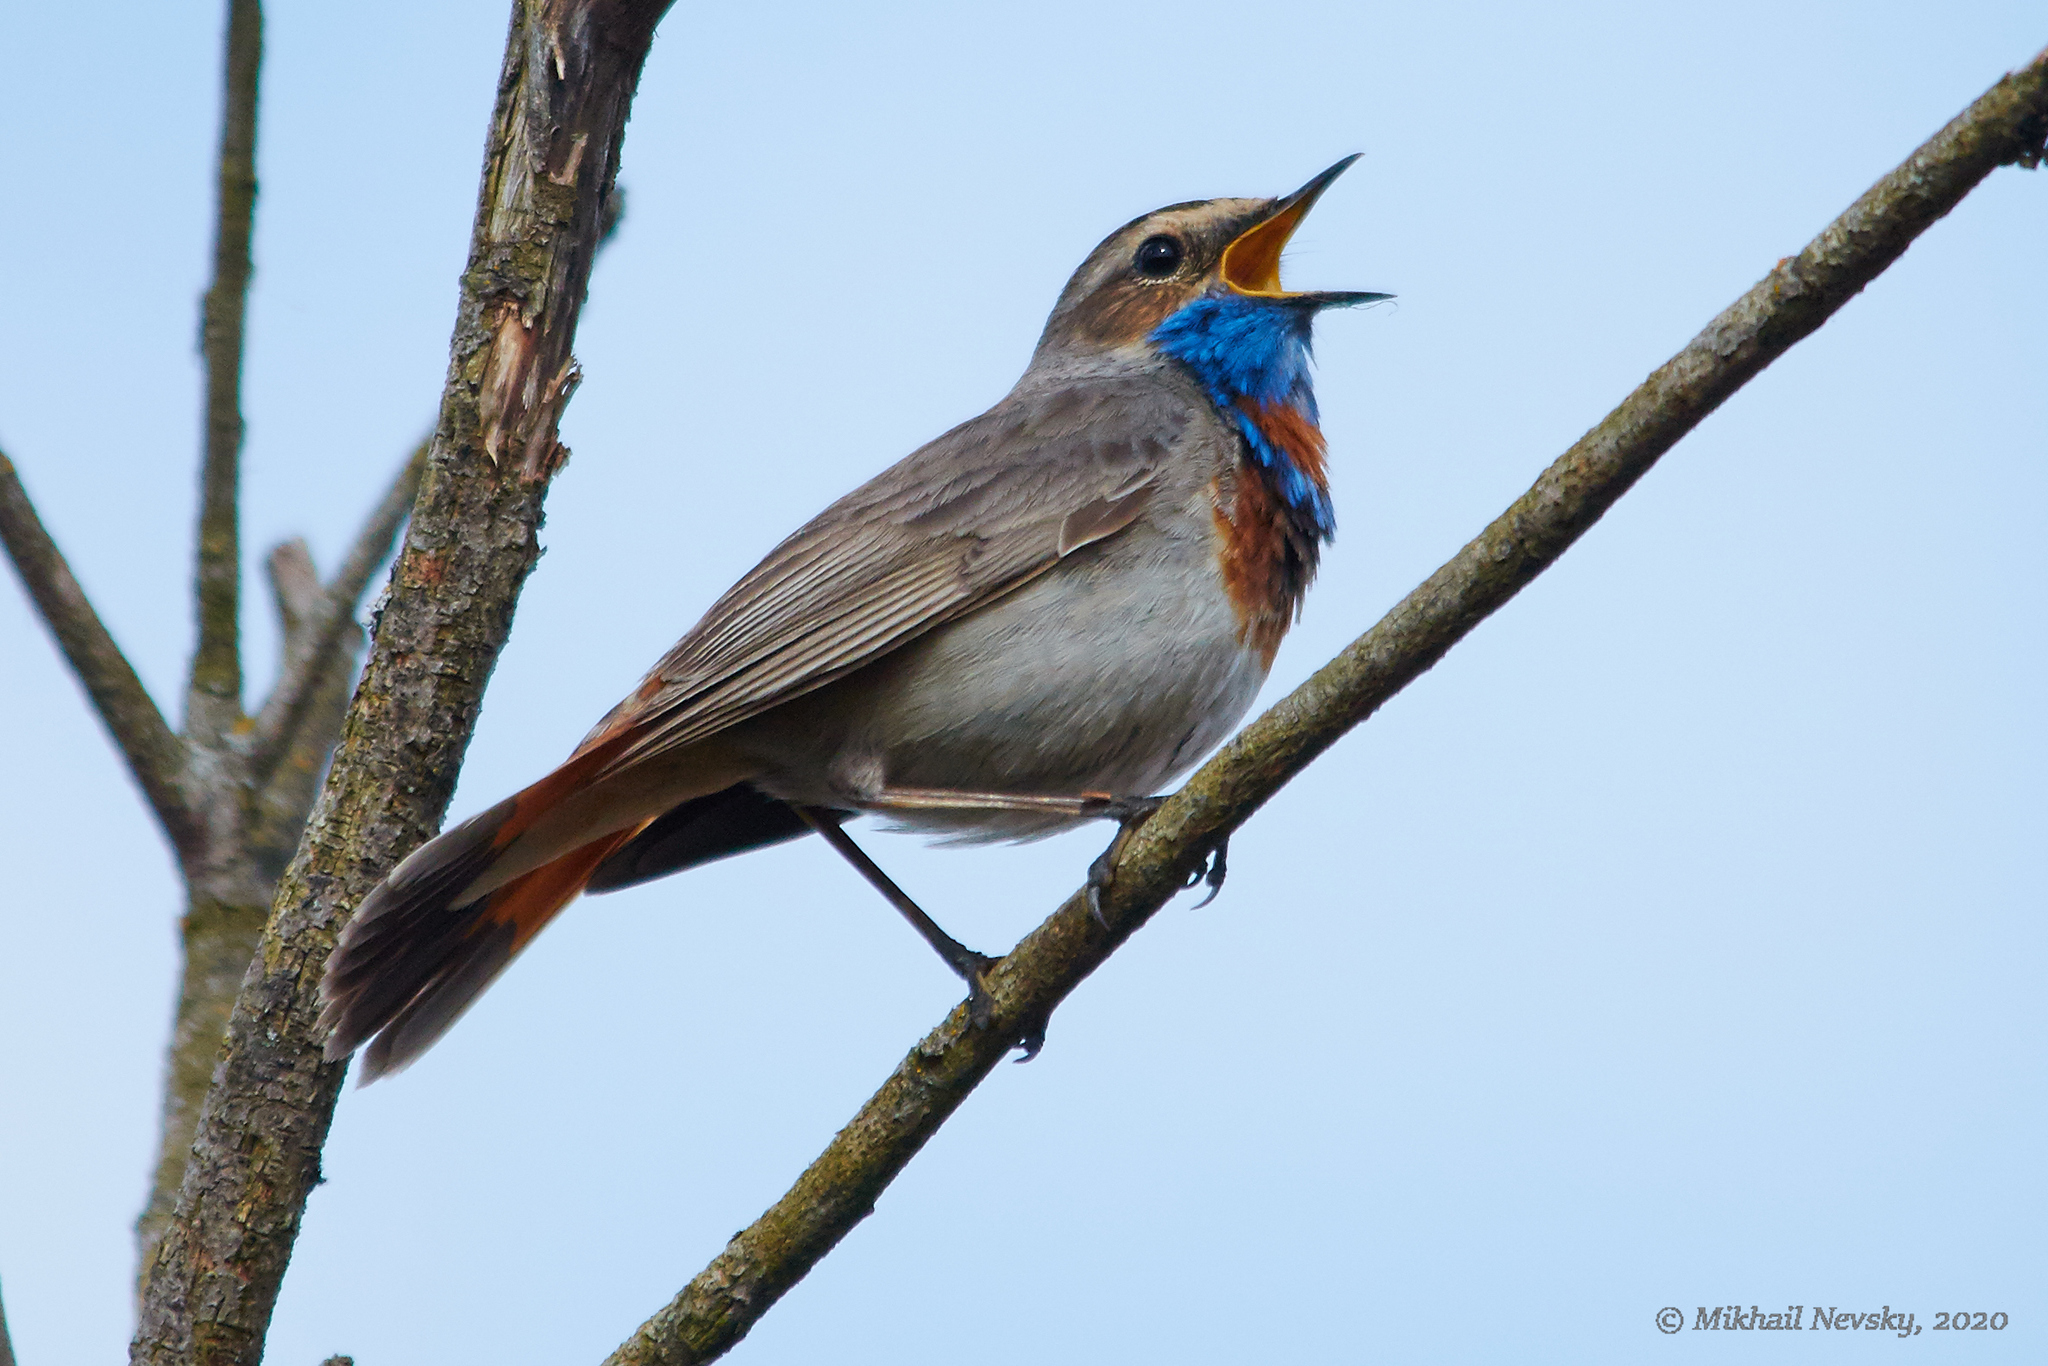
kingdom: Animalia
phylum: Chordata
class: Aves
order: Passeriformes
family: Muscicapidae
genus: Luscinia
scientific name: Luscinia svecica
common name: Bluethroat
